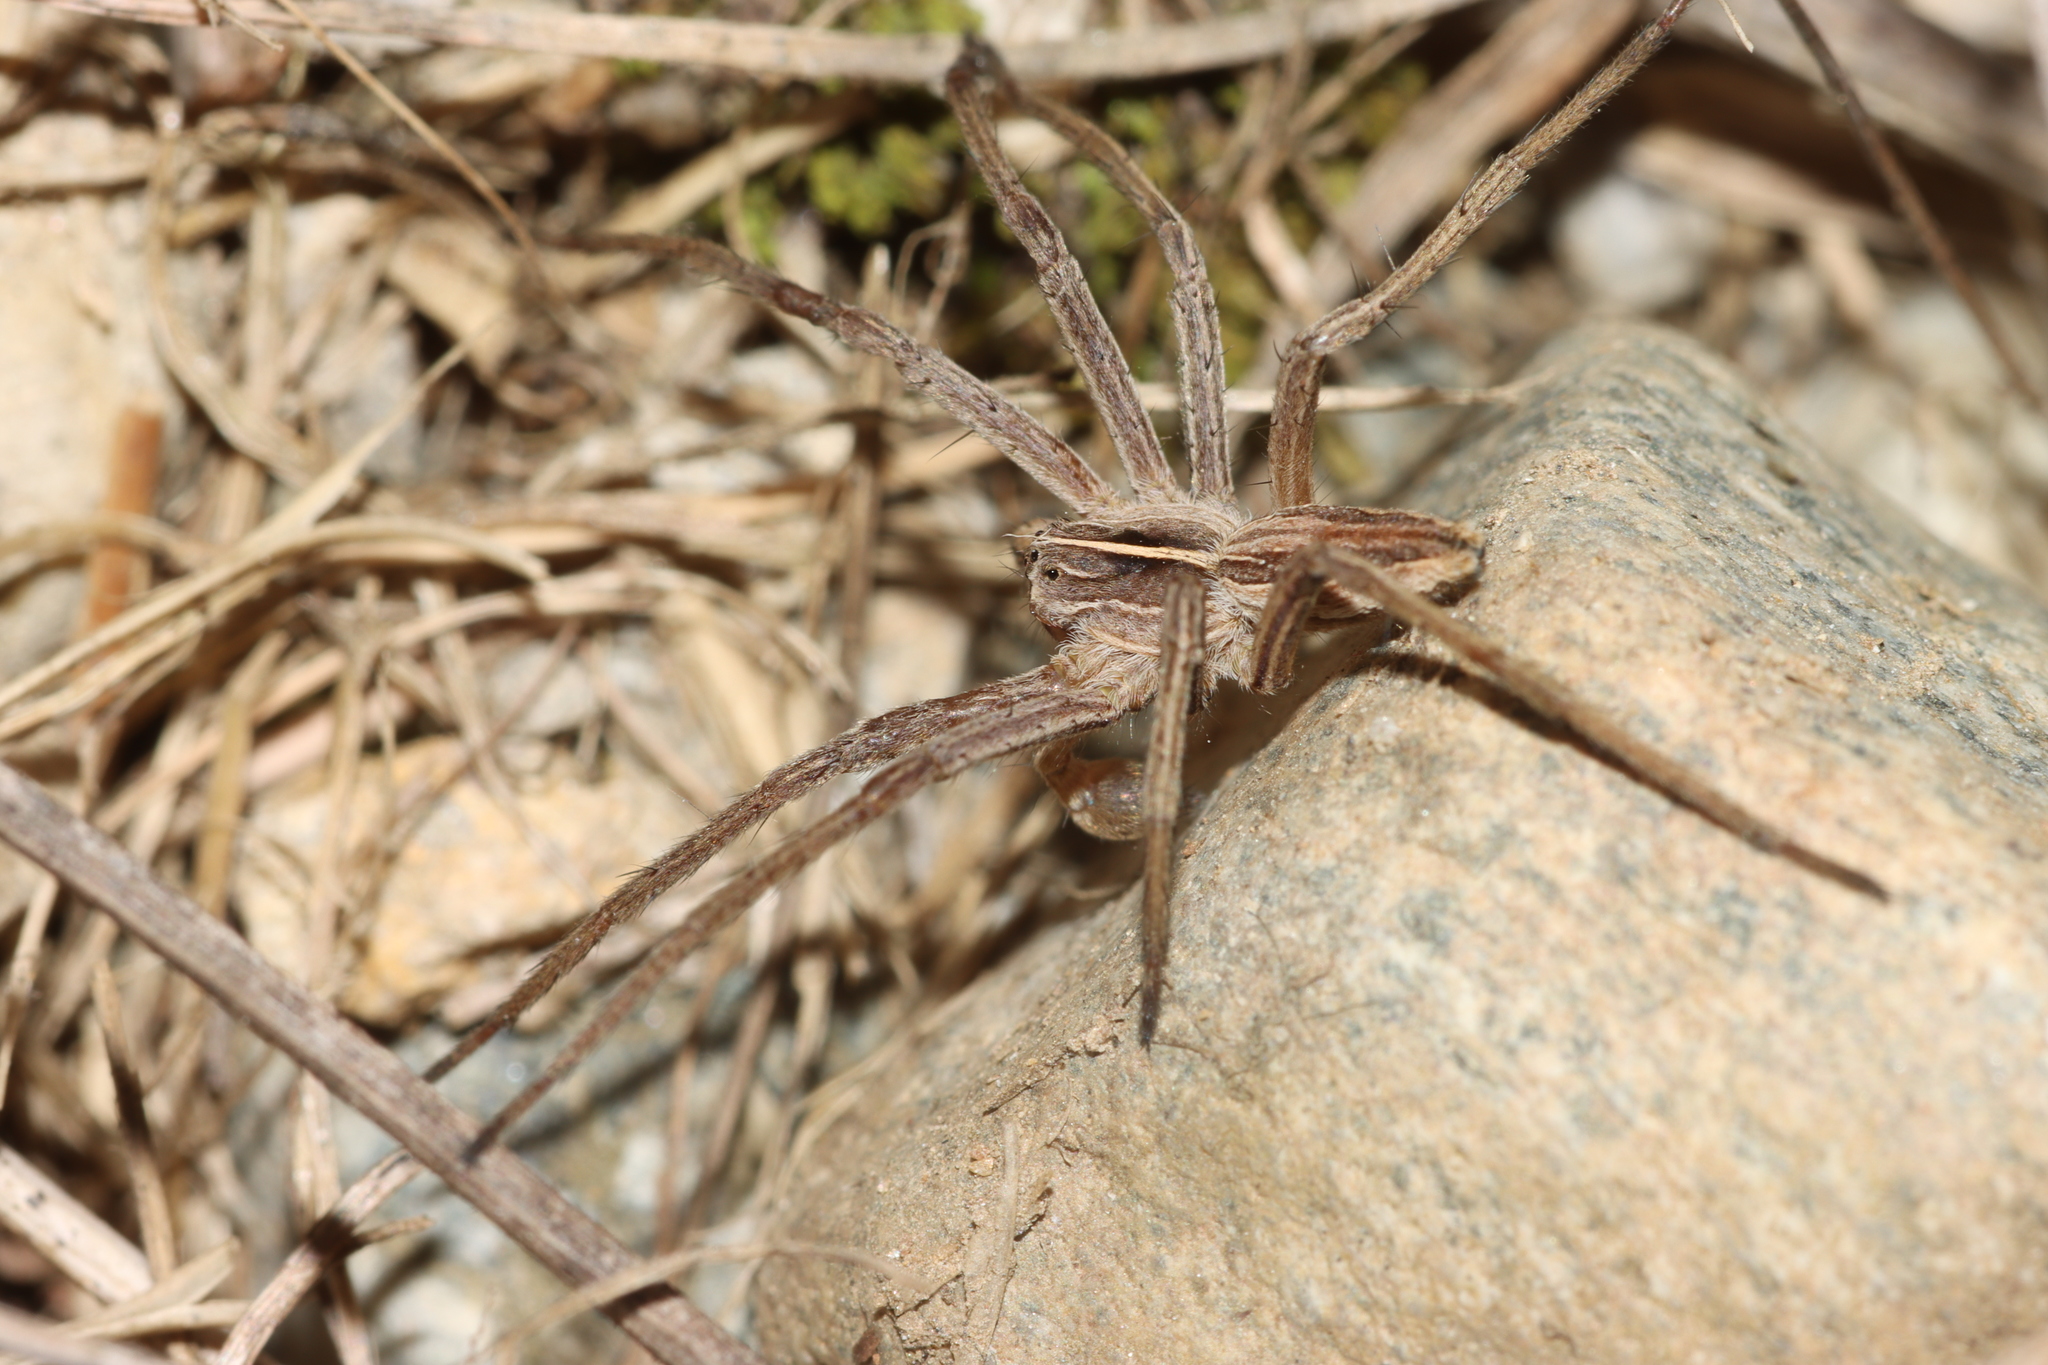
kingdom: Animalia
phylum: Arthropoda
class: Arachnida
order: Araneae
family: Pisauridae
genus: Pisaura
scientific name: Pisaura mirabilis
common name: Tent spider
